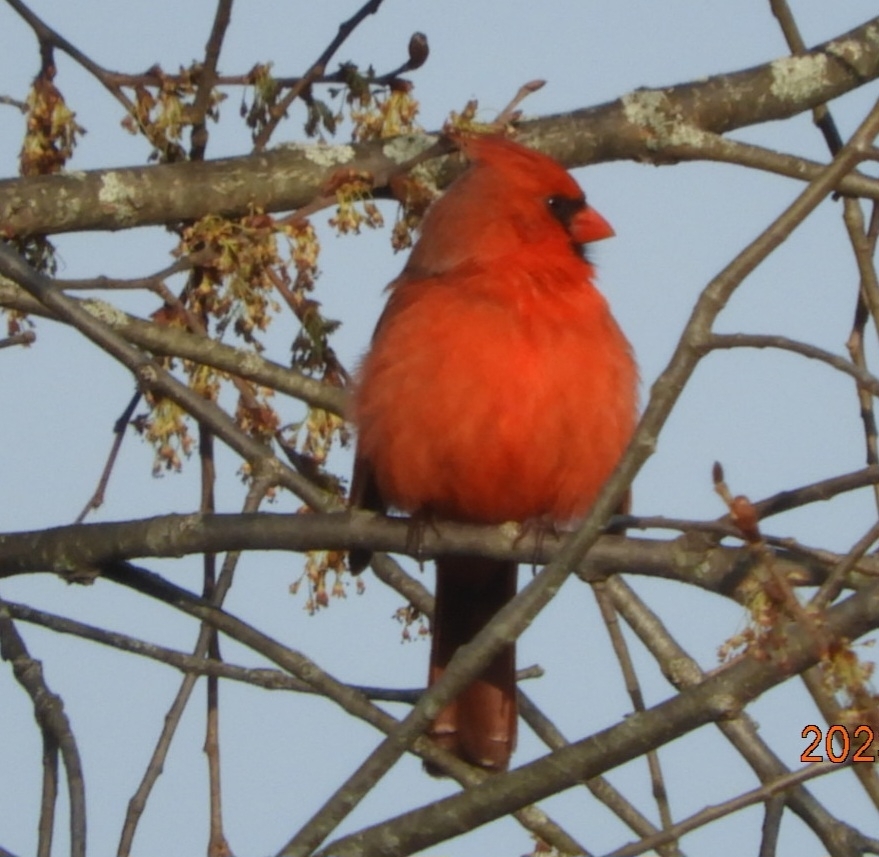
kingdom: Animalia
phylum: Chordata
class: Aves
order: Passeriformes
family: Cardinalidae
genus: Cardinalis
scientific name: Cardinalis cardinalis
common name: Northern cardinal
